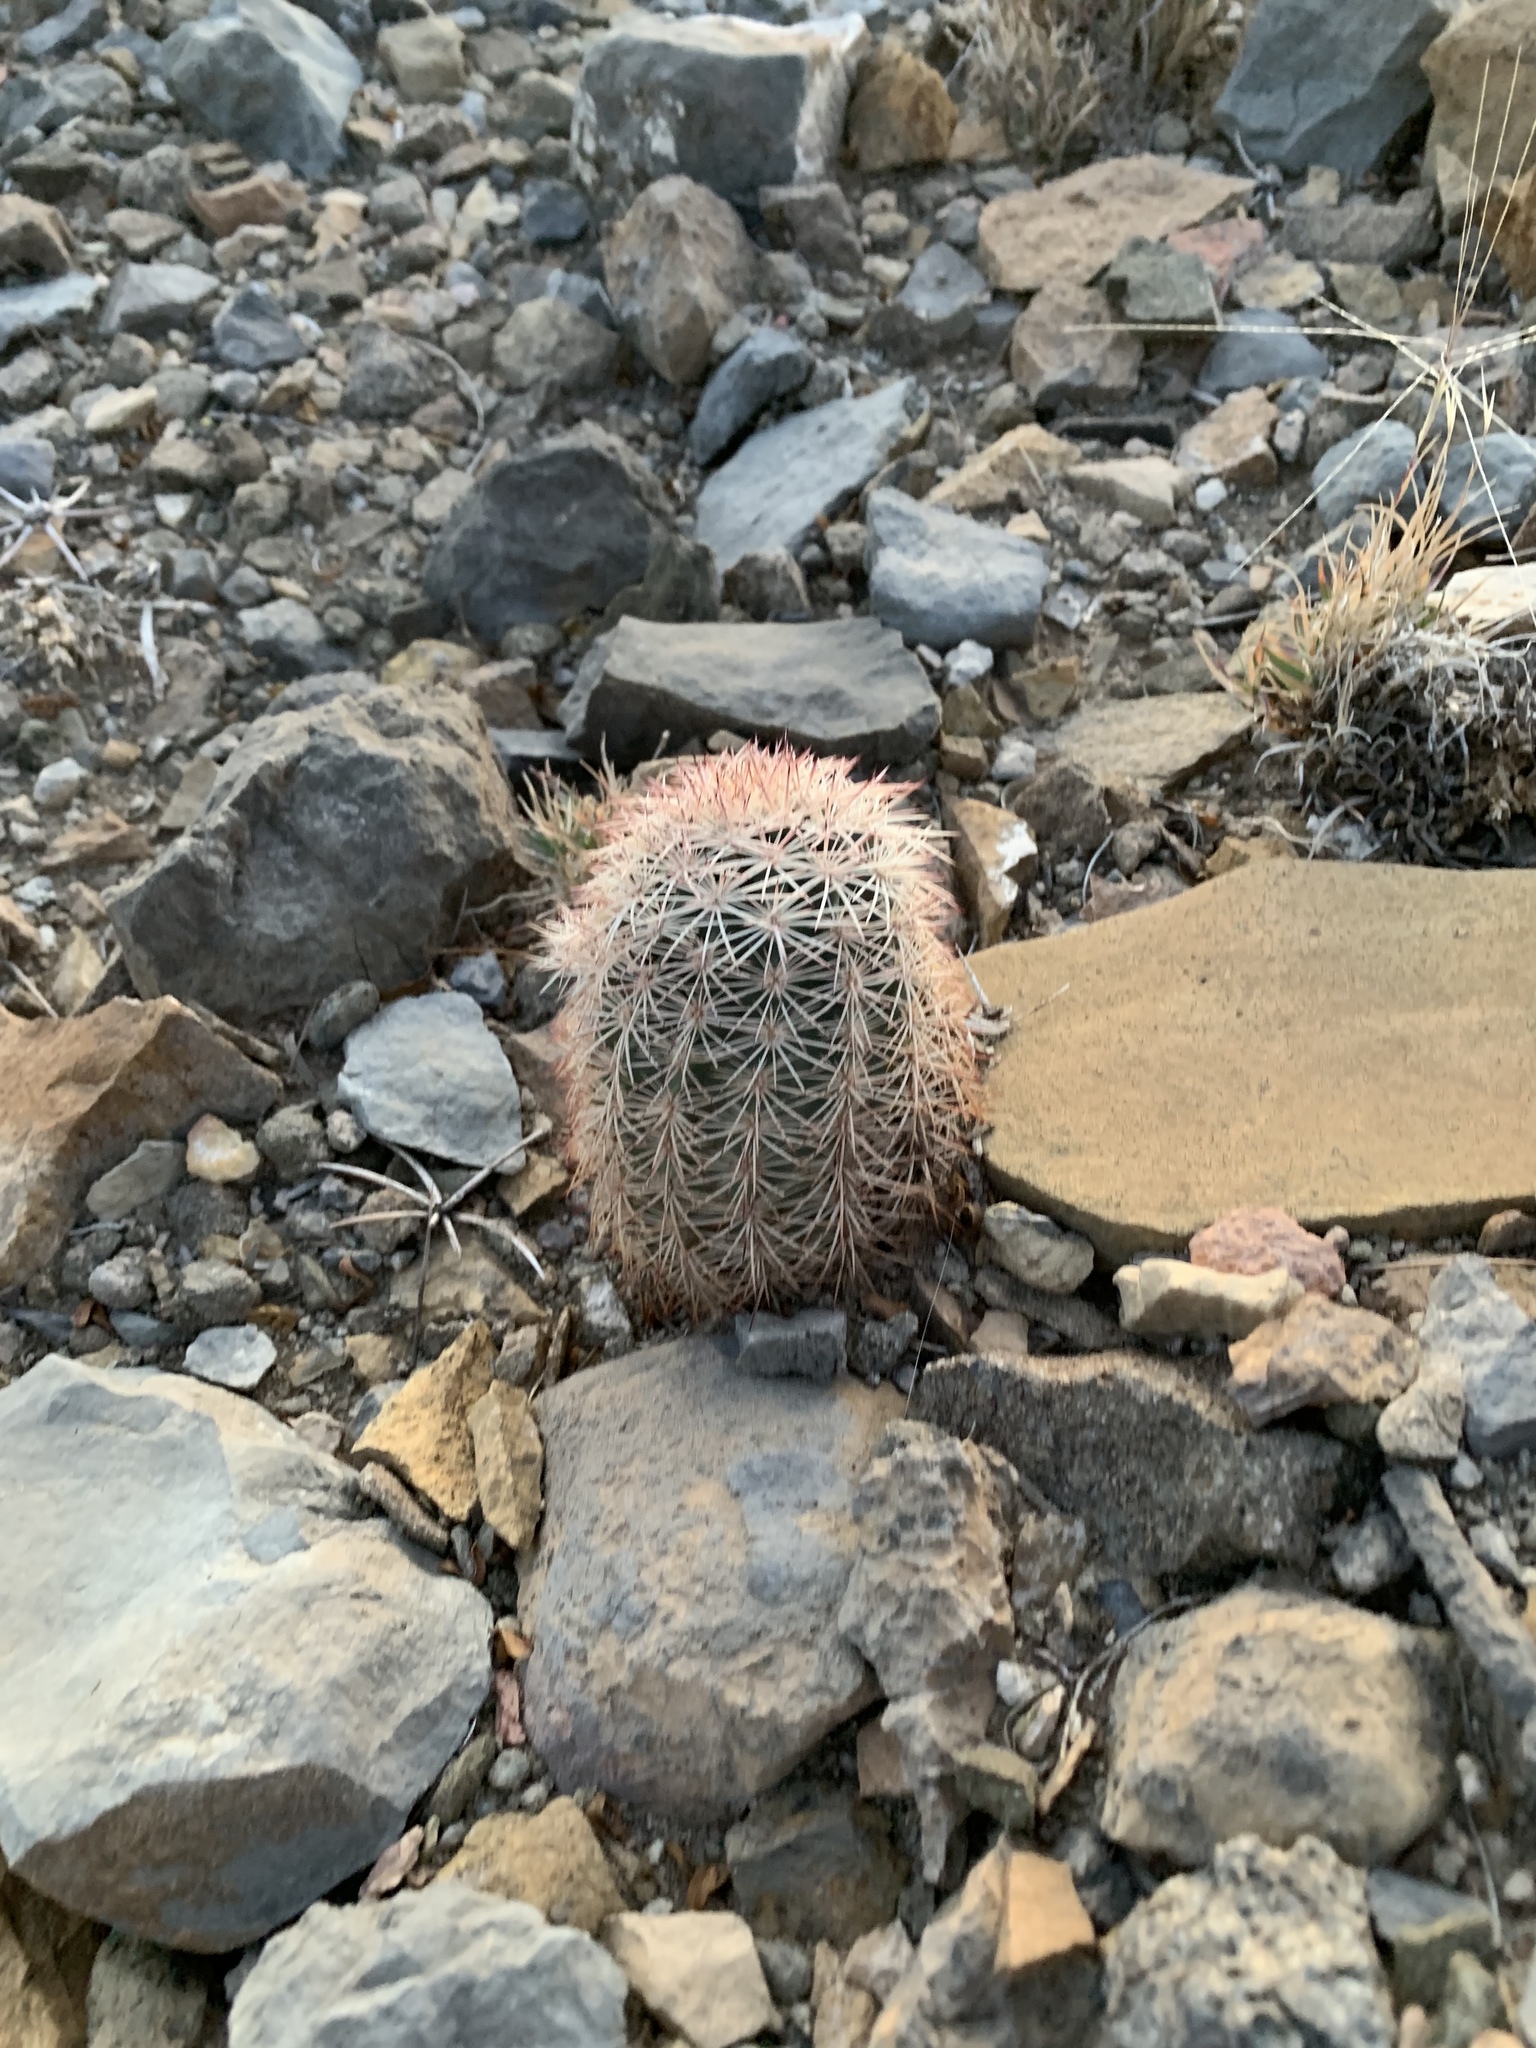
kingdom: Plantae
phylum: Tracheophyta
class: Magnoliopsida
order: Caryophyllales
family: Cactaceae
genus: Echinocereus
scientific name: Echinocereus dasyacanthus
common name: Spiny hedgehog cactus
